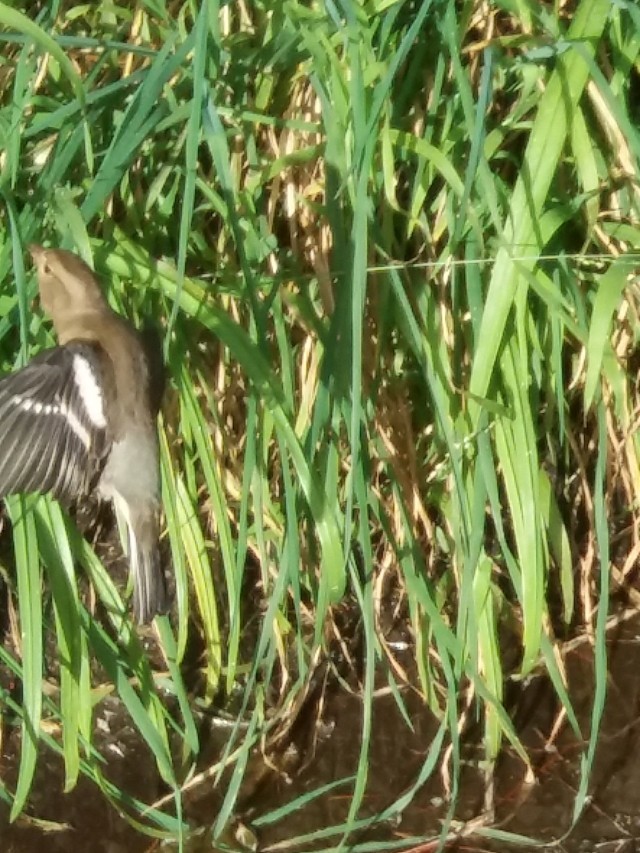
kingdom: Animalia
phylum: Chordata
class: Aves
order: Passeriformes
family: Fringillidae
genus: Fringilla
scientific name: Fringilla coelebs
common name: Common chaffinch
